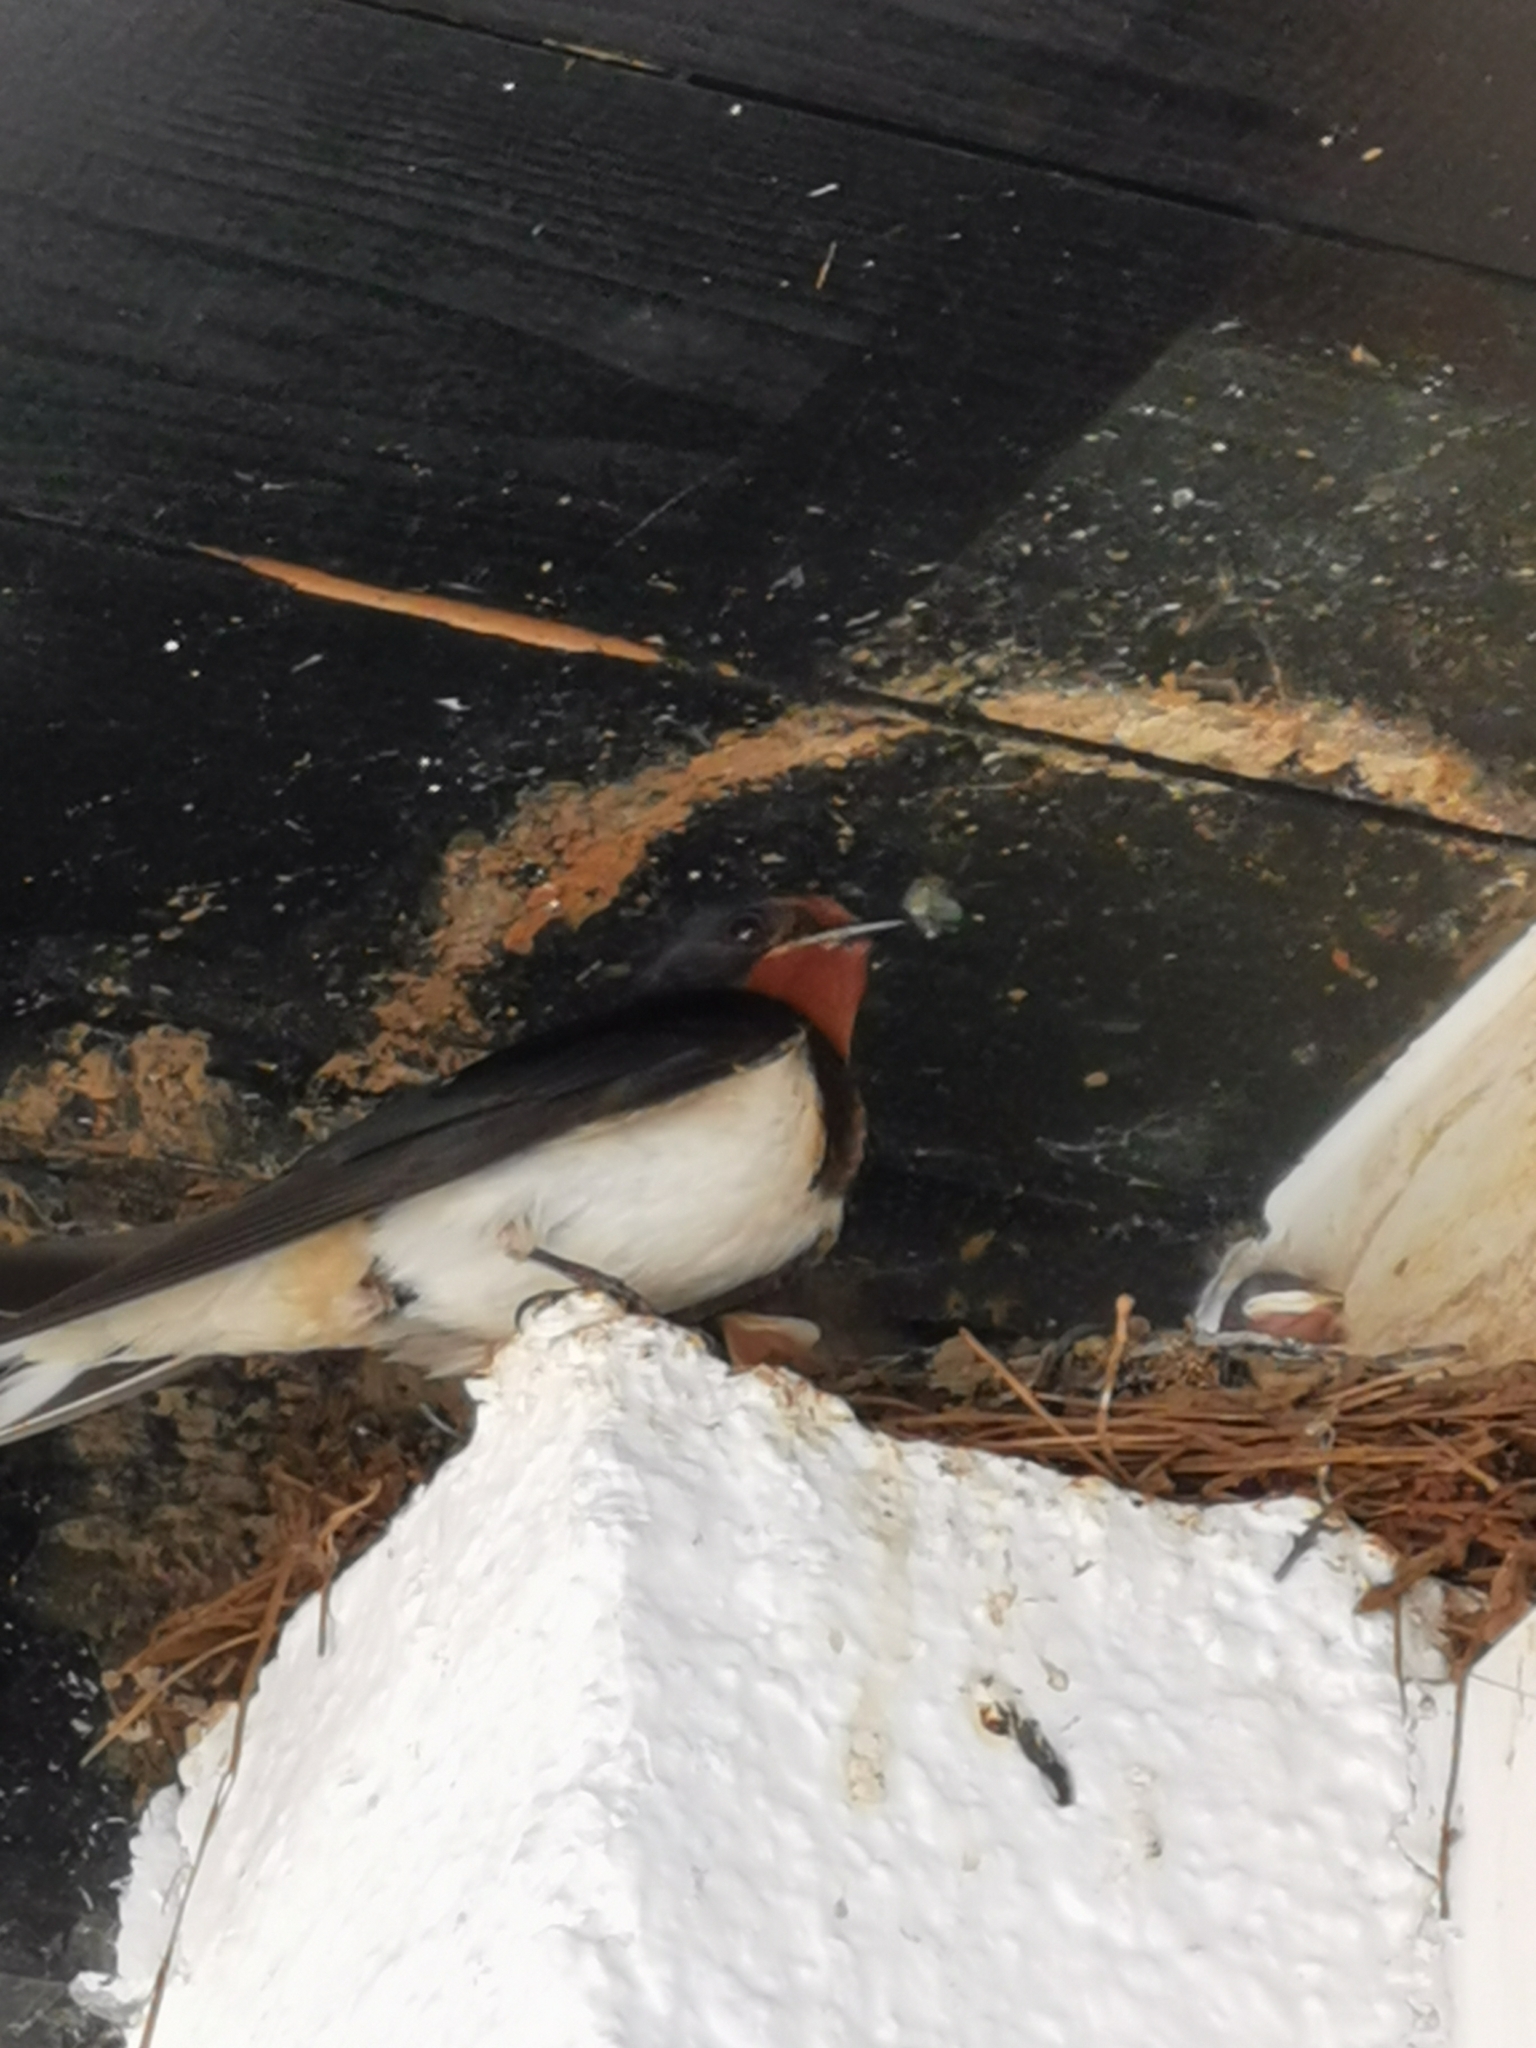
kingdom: Animalia
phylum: Chordata
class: Aves
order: Passeriformes
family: Hirundinidae
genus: Hirundo
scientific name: Hirundo rustica
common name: Barn swallow
